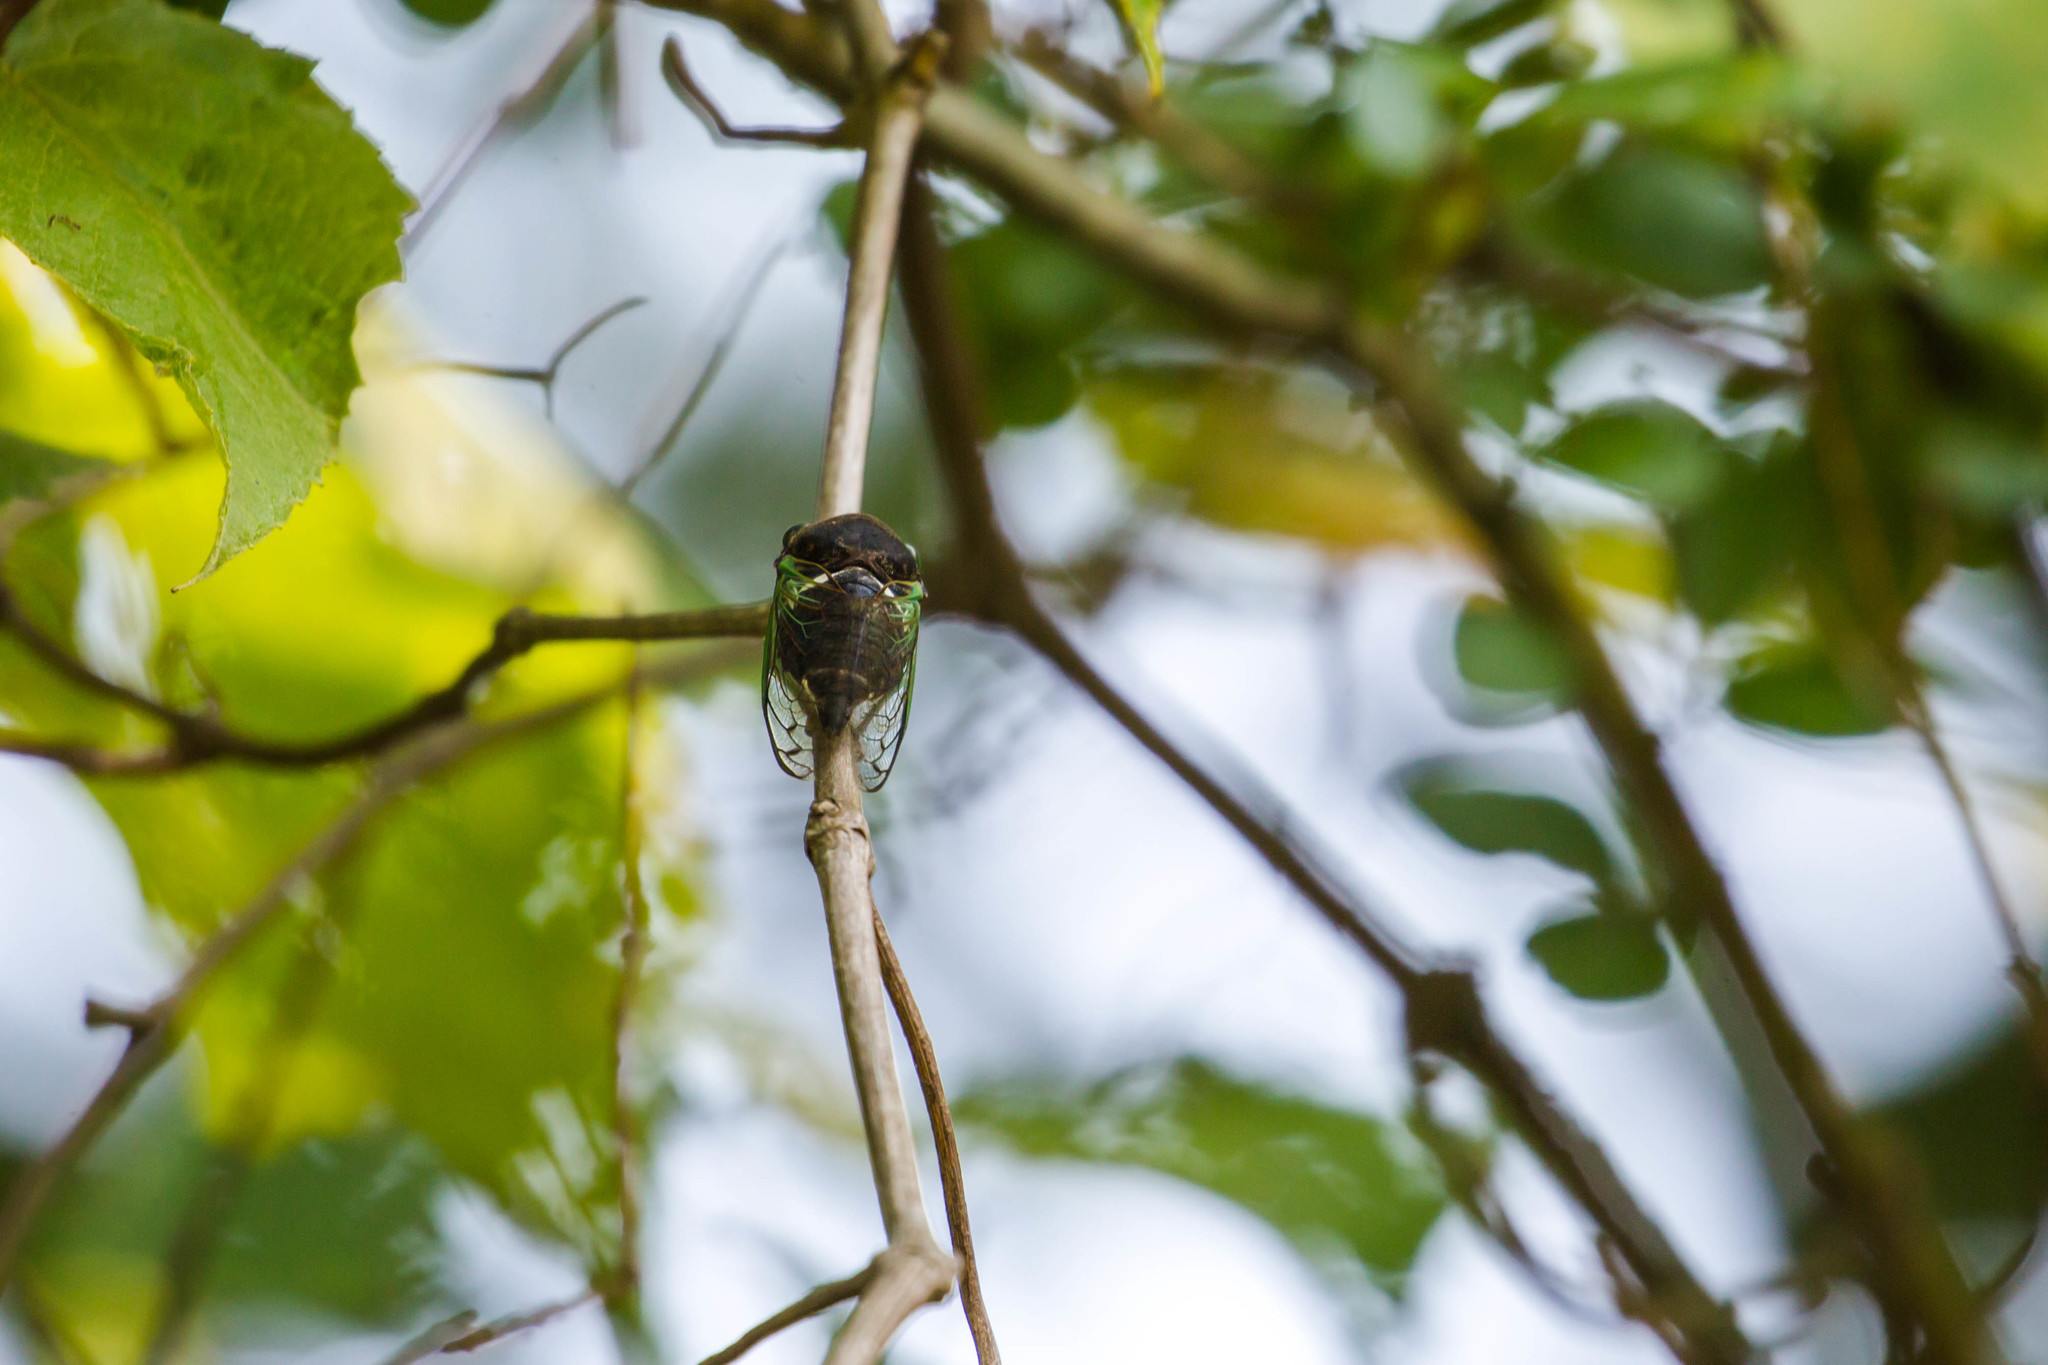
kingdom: Animalia
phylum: Arthropoda
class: Insecta
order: Hemiptera
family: Cicadidae
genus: Neotibicen
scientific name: Neotibicen tibicen
